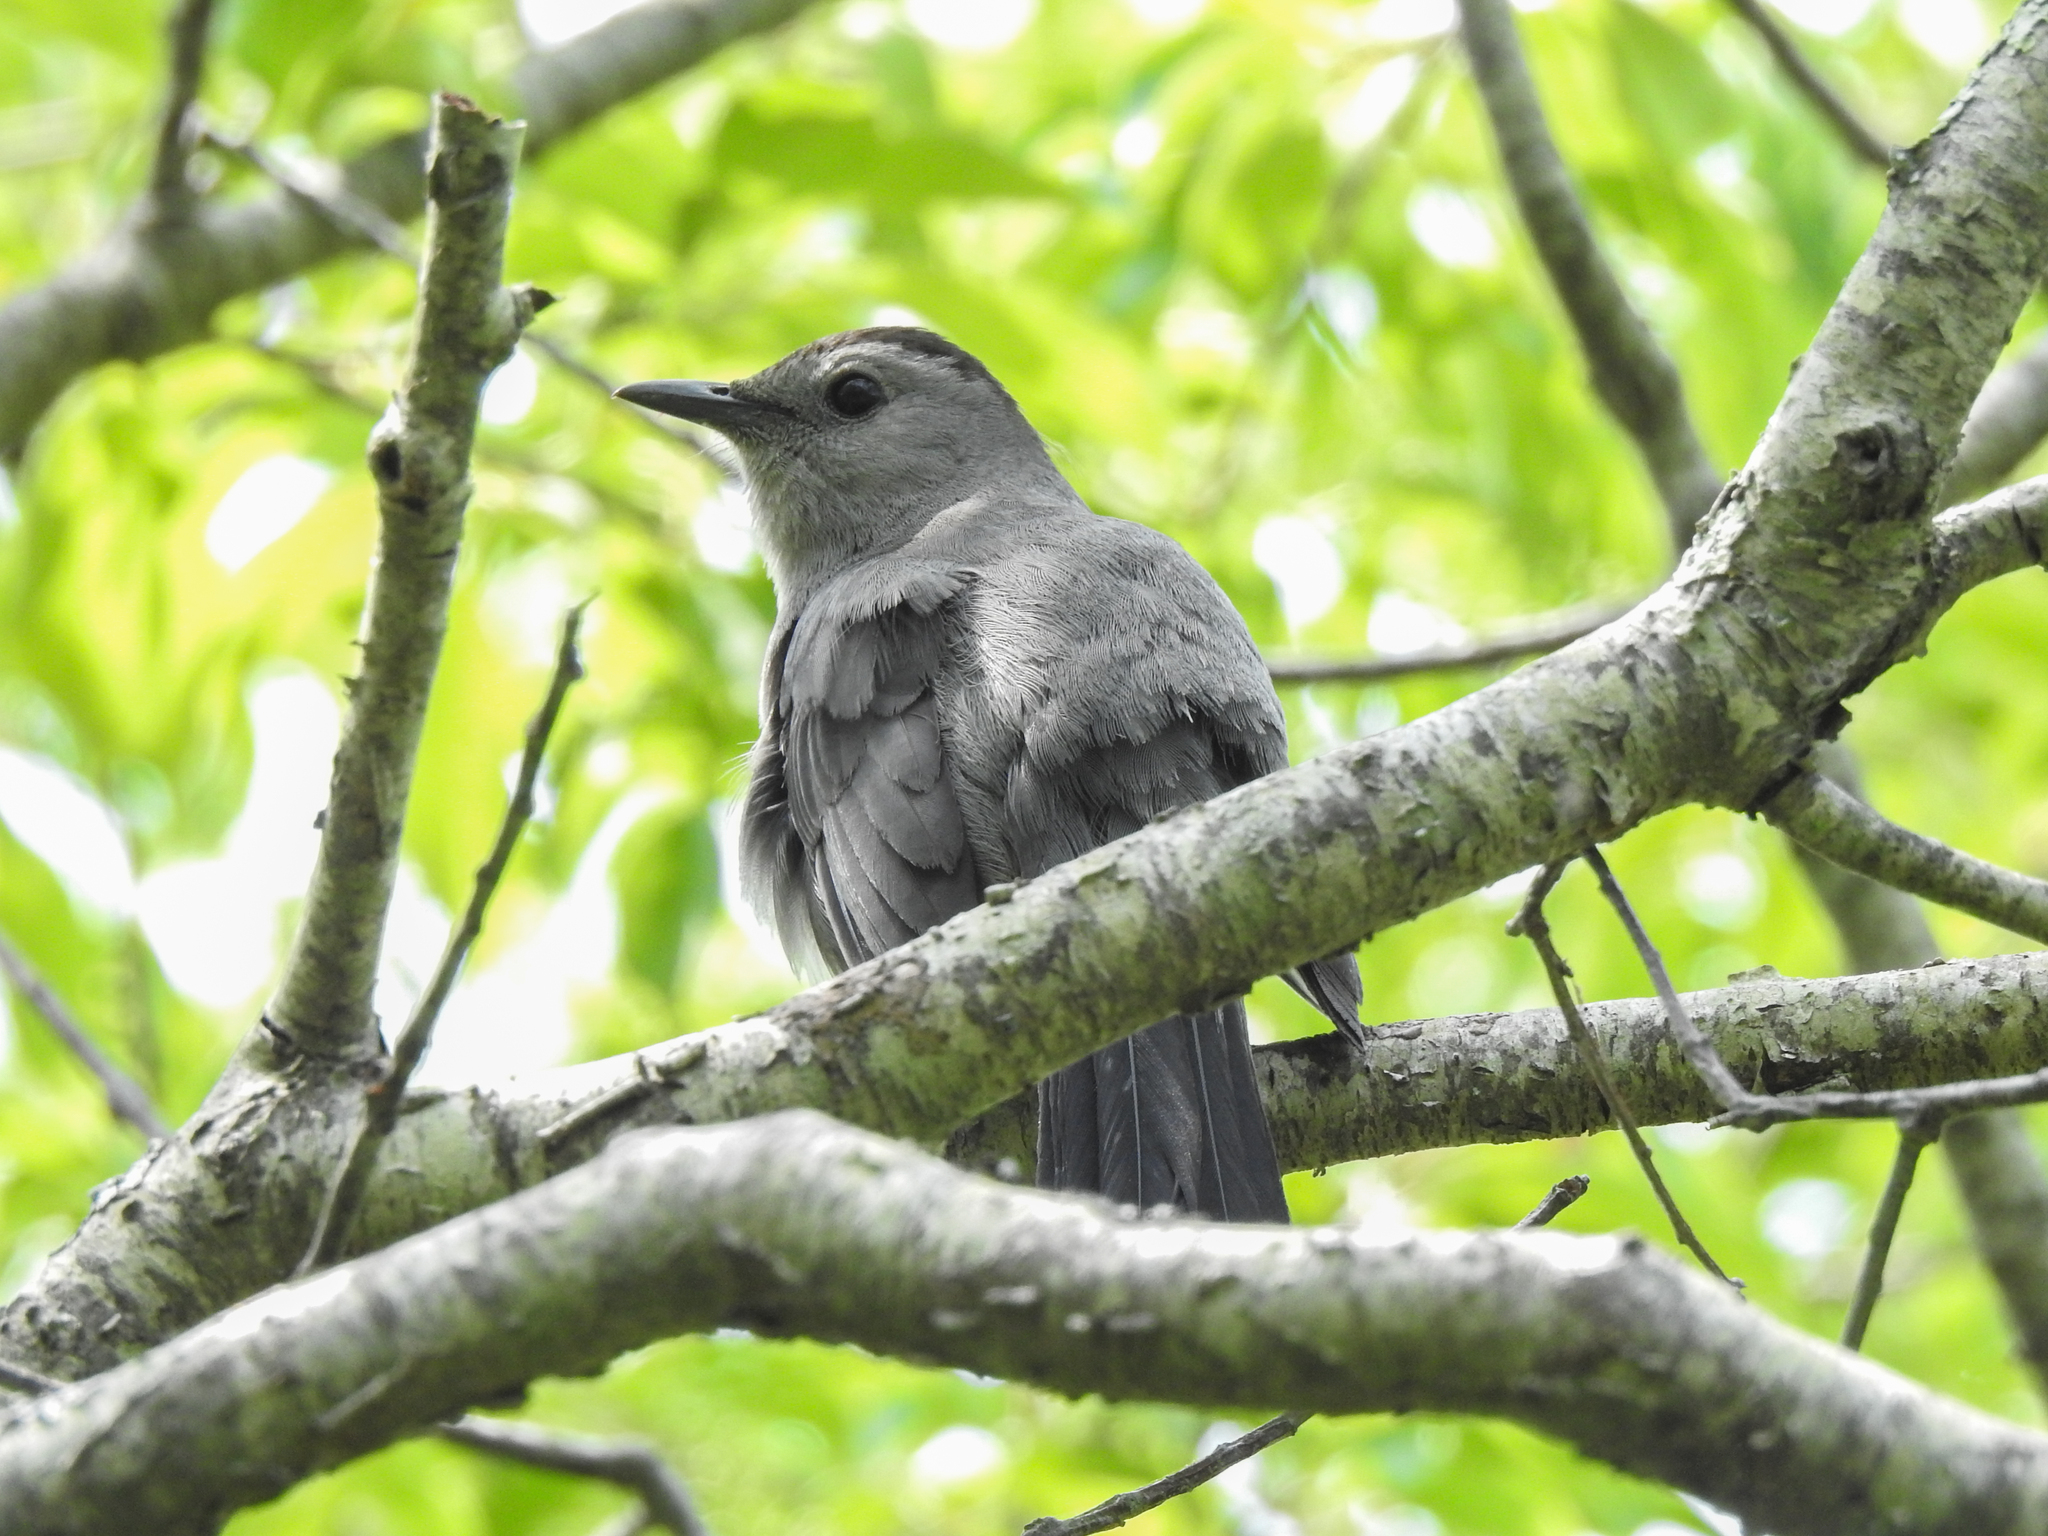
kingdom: Animalia
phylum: Chordata
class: Aves
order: Passeriformes
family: Mimidae
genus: Dumetella
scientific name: Dumetella carolinensis
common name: Gray catbird
